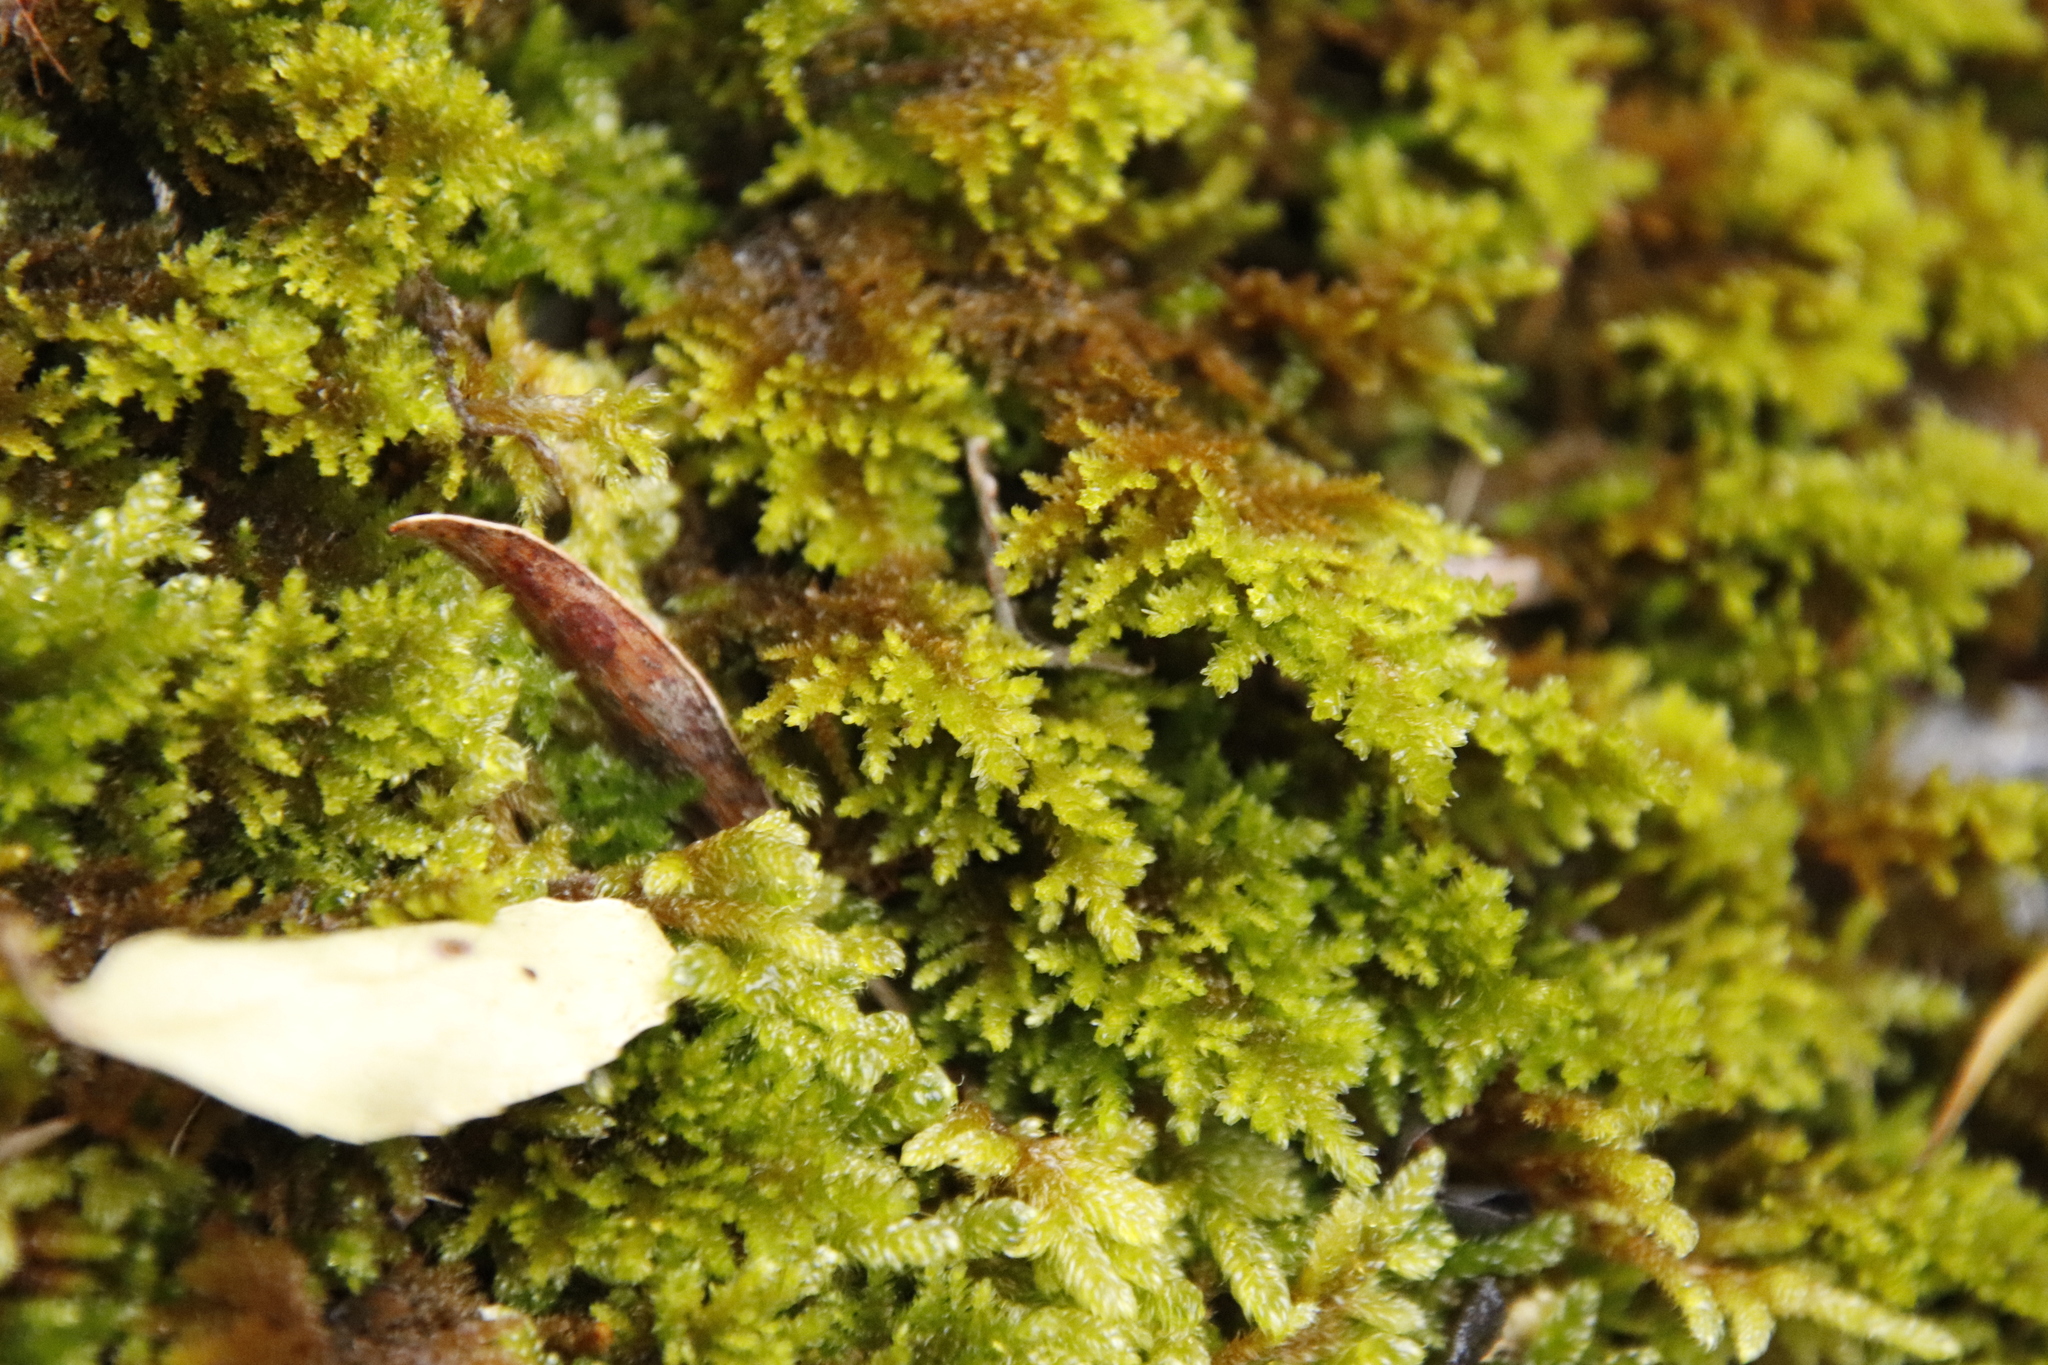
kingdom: Plantae
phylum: Bryophyta
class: Bryopsida
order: Hypnales
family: Neckeraceae
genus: Leptodon
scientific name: Leptodon smithii
